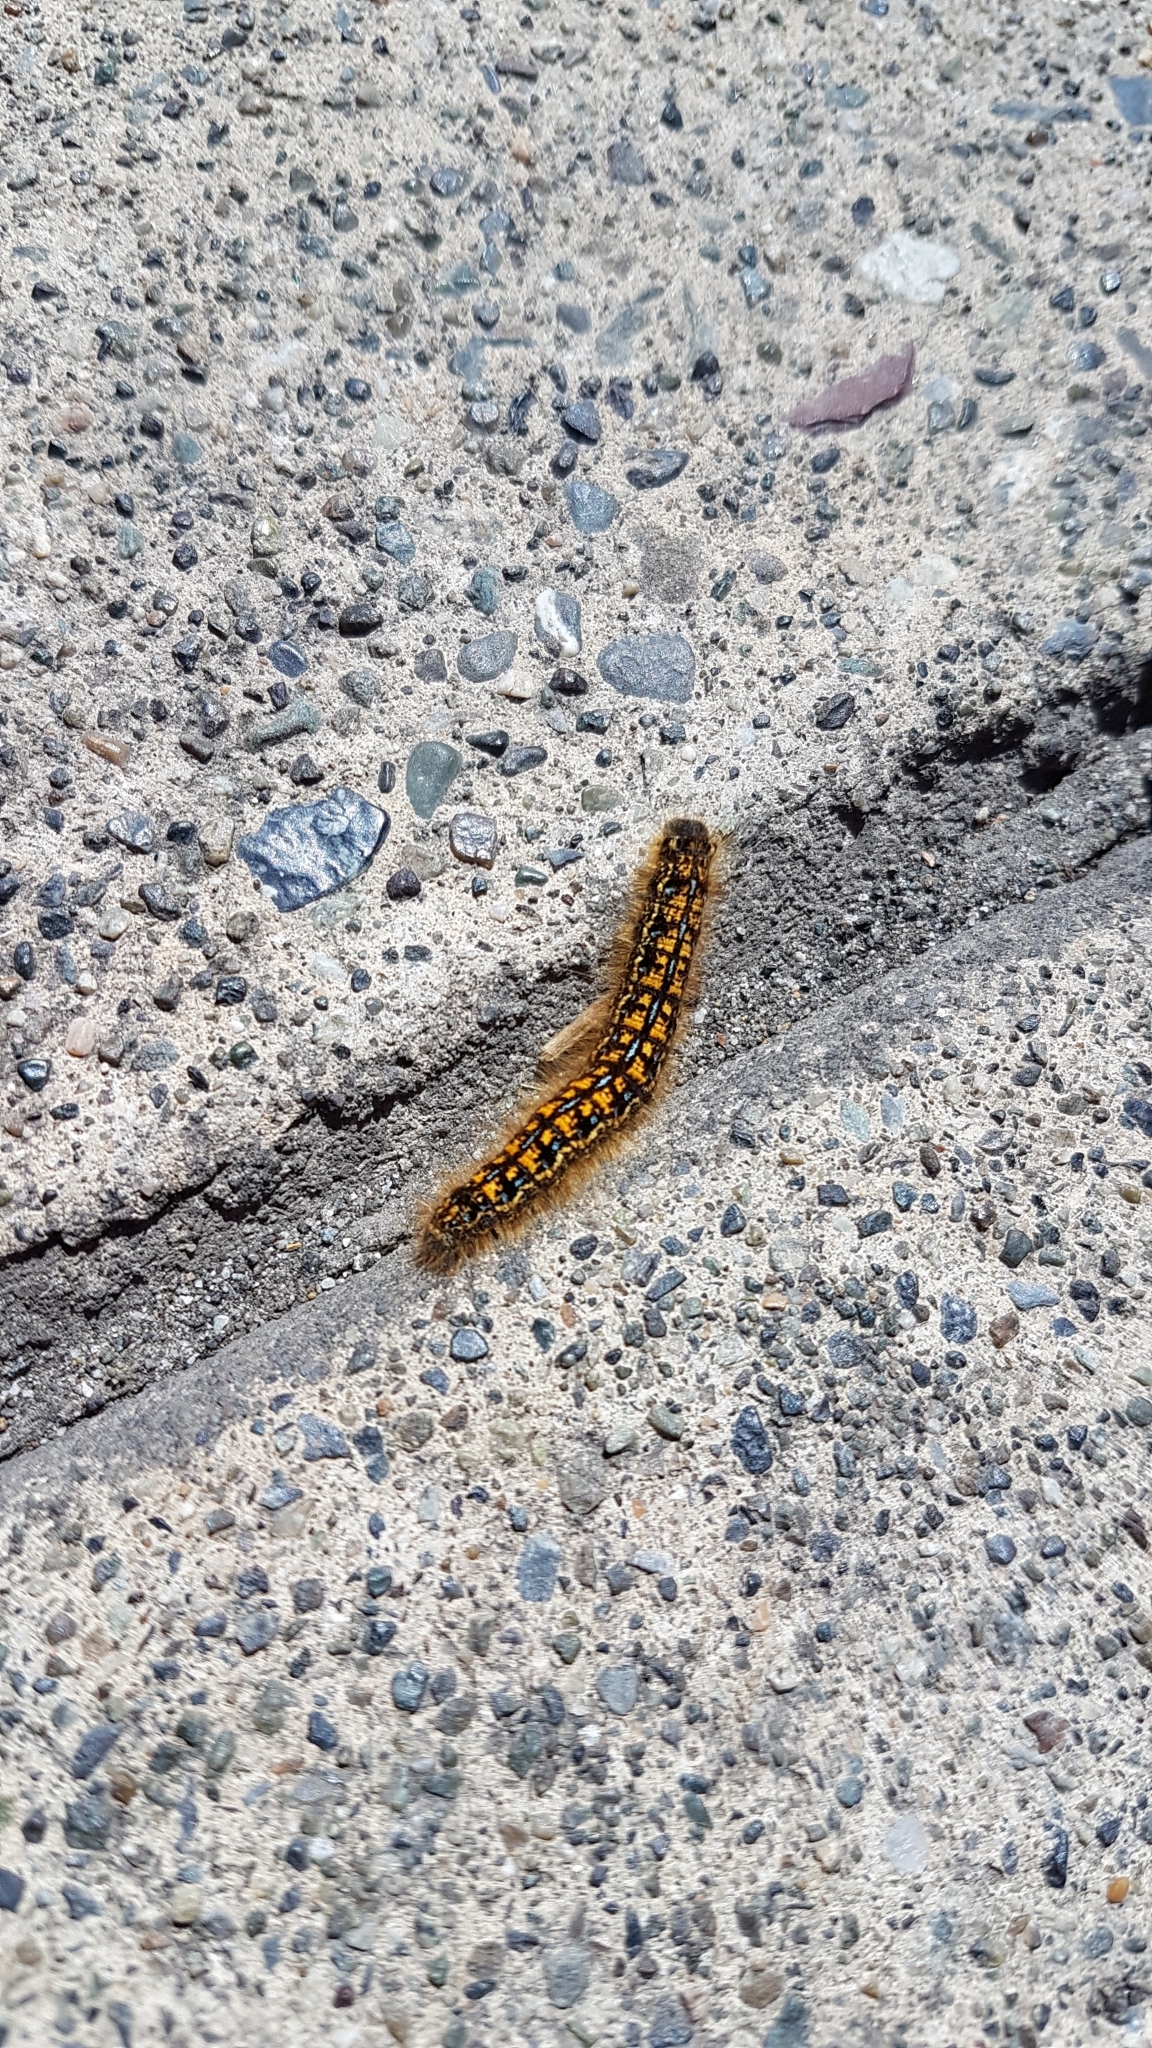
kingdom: Animalia
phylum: Arthropoda
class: Insecta
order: Lepidoptera
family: Lasiocampidae
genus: Malacosoma
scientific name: Malacosoma californica
